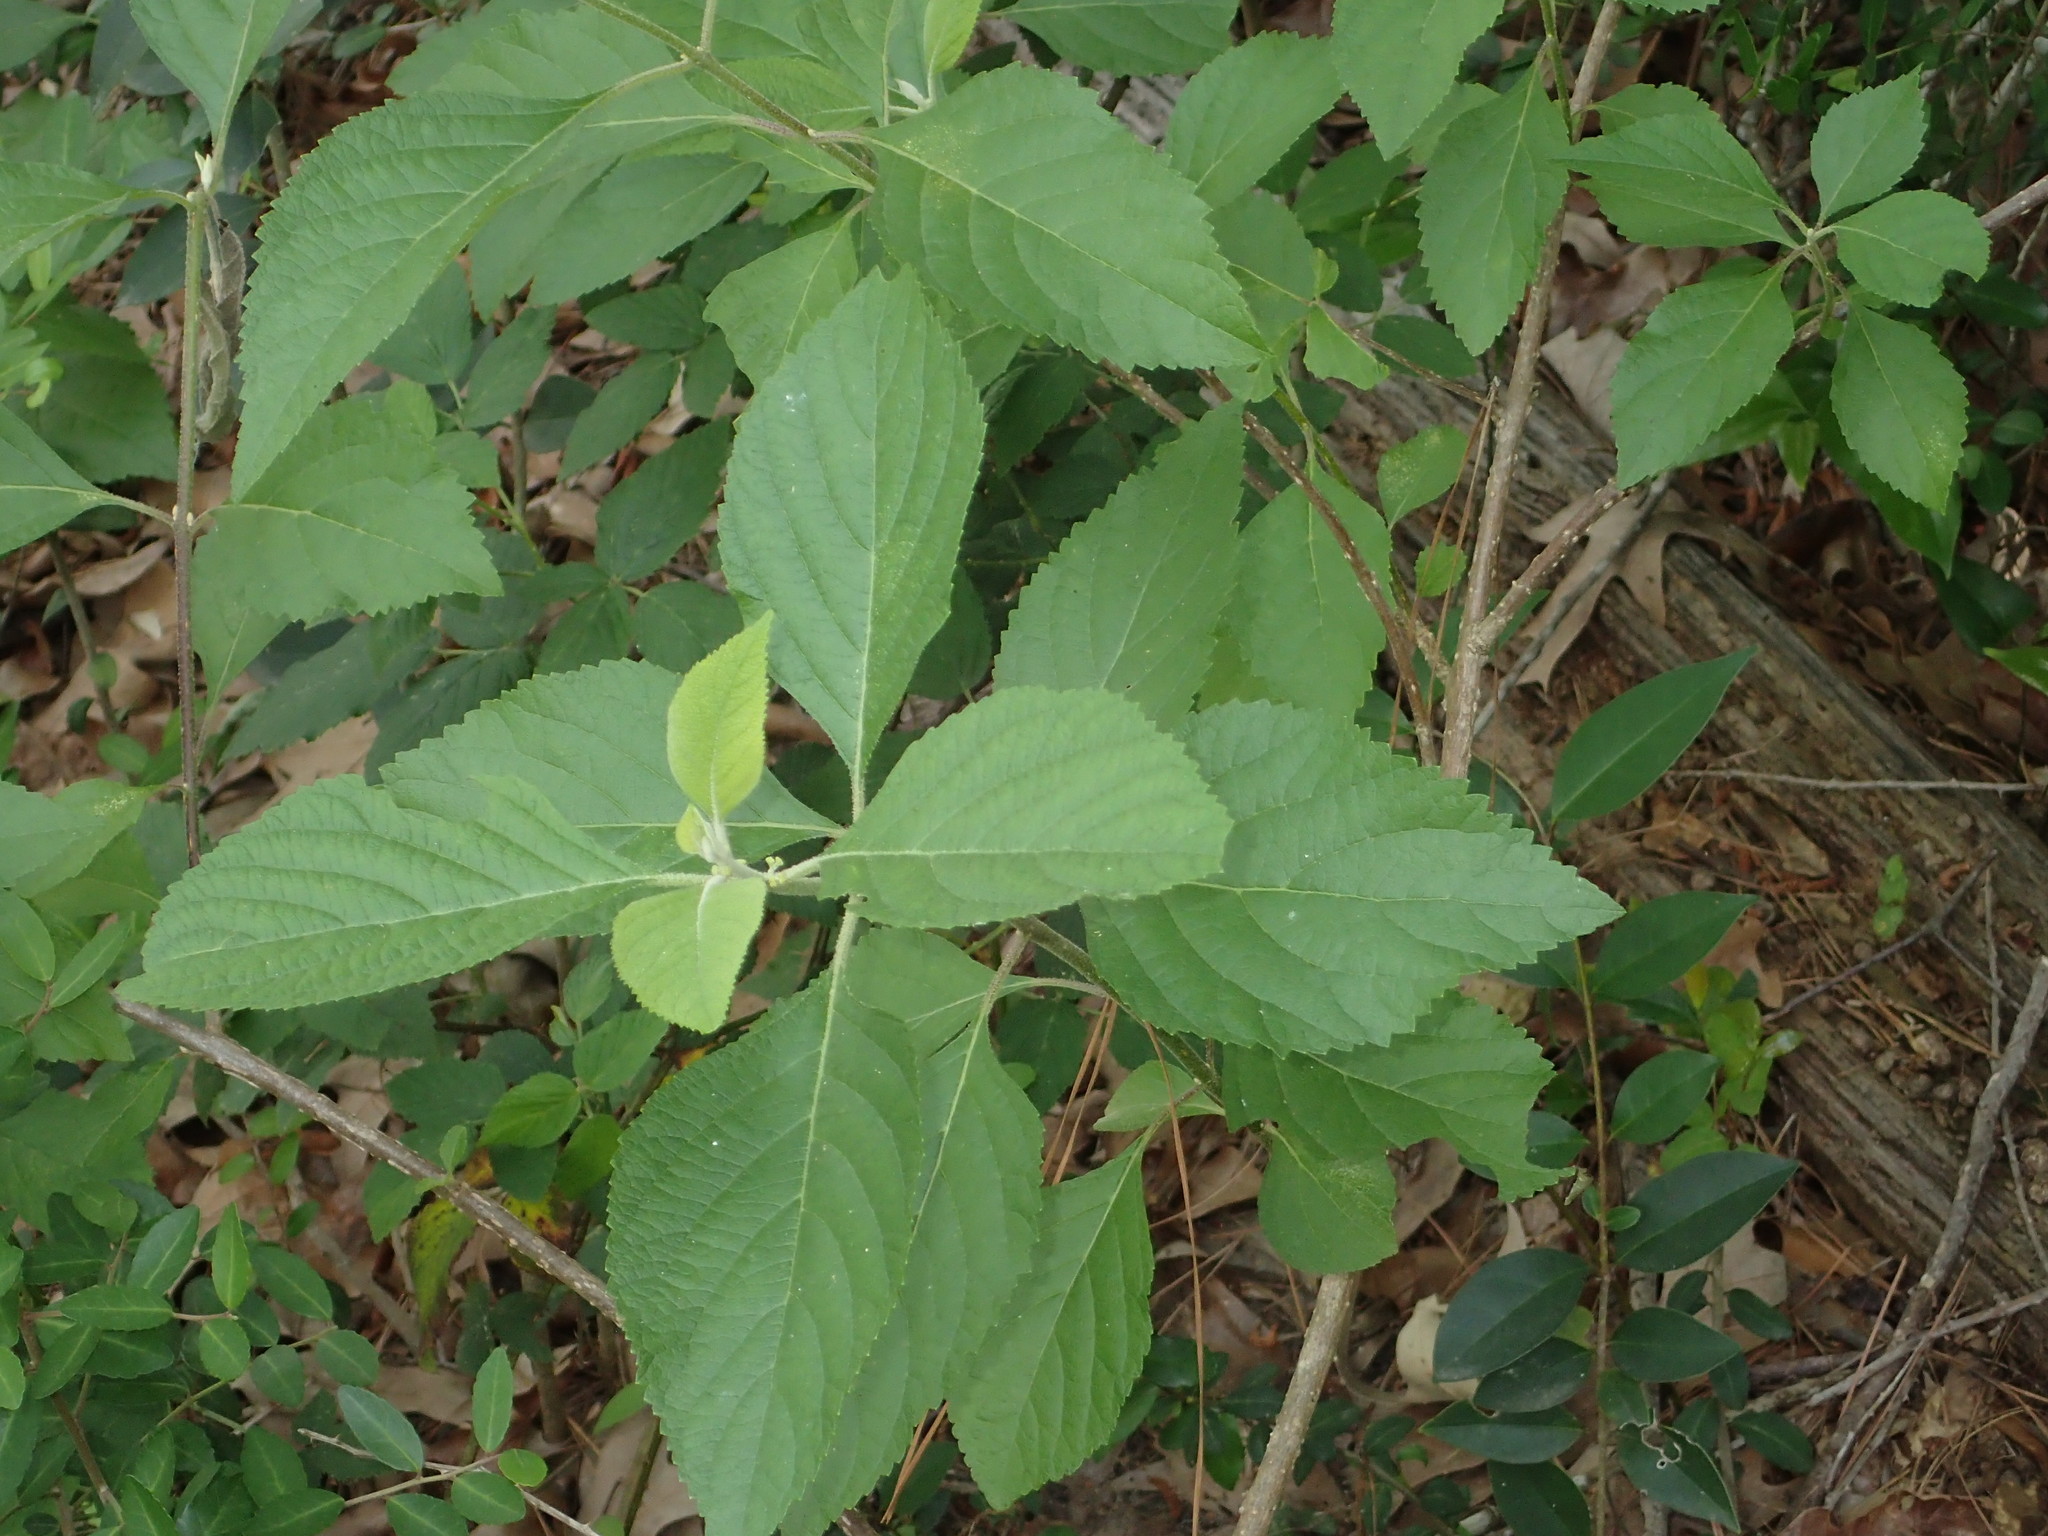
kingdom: Plantae
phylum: Tracheophyta
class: Magnoliopsida
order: Lamiales
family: Lamiaceae
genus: Callicarpa
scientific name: Callicarpa americana
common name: American beautyberry
